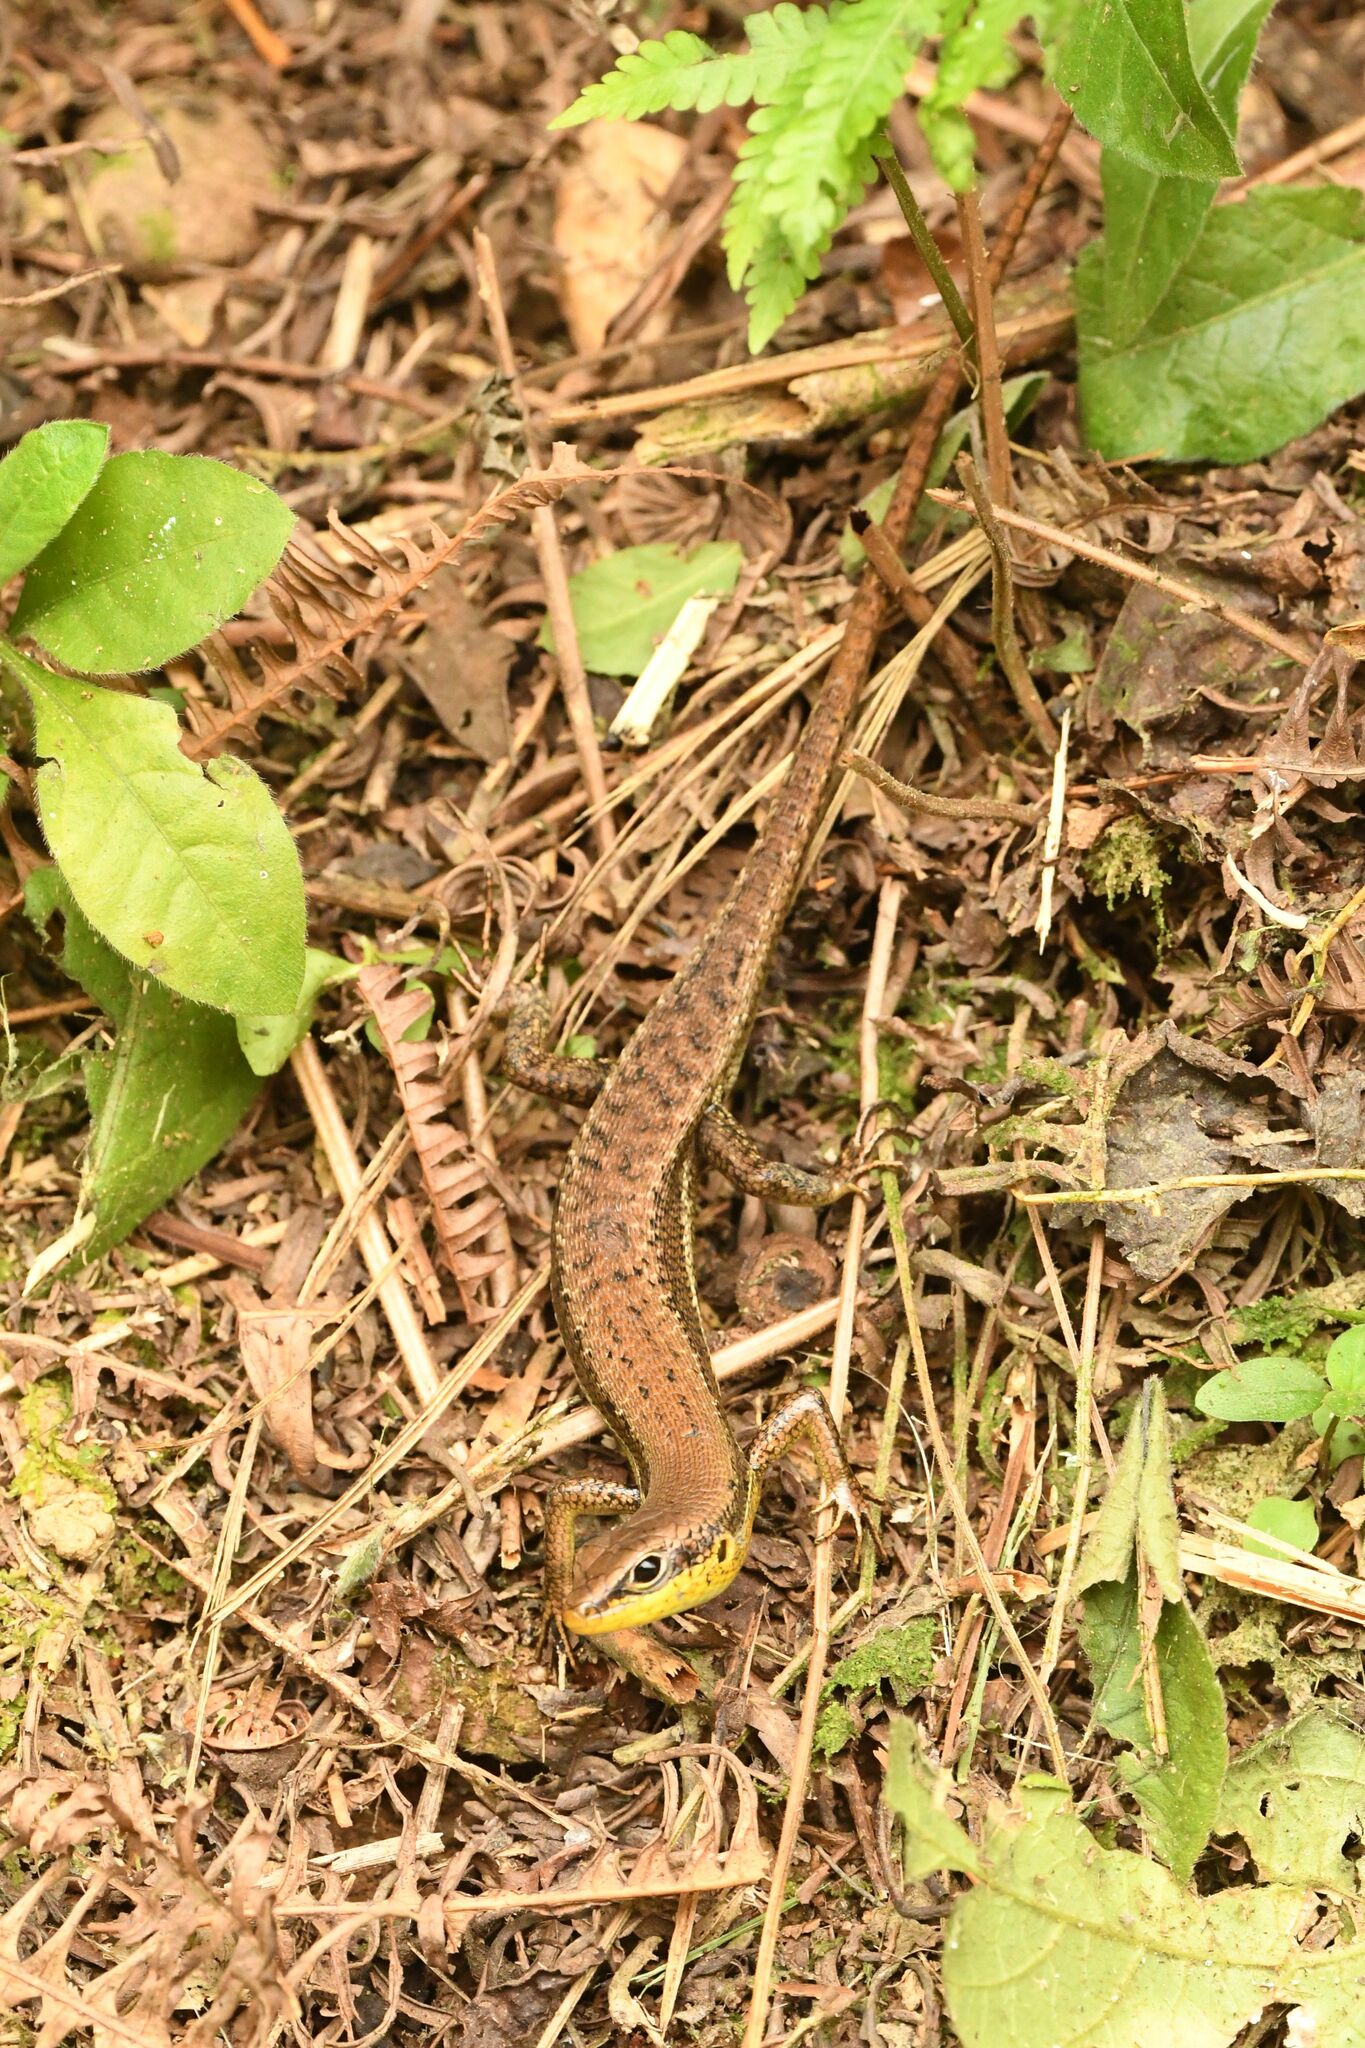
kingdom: Animalia
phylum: Chordata
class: Squamata
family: Scincidae
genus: Trachylepis
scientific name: Trachylepis affinis
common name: Senegal mabuya
